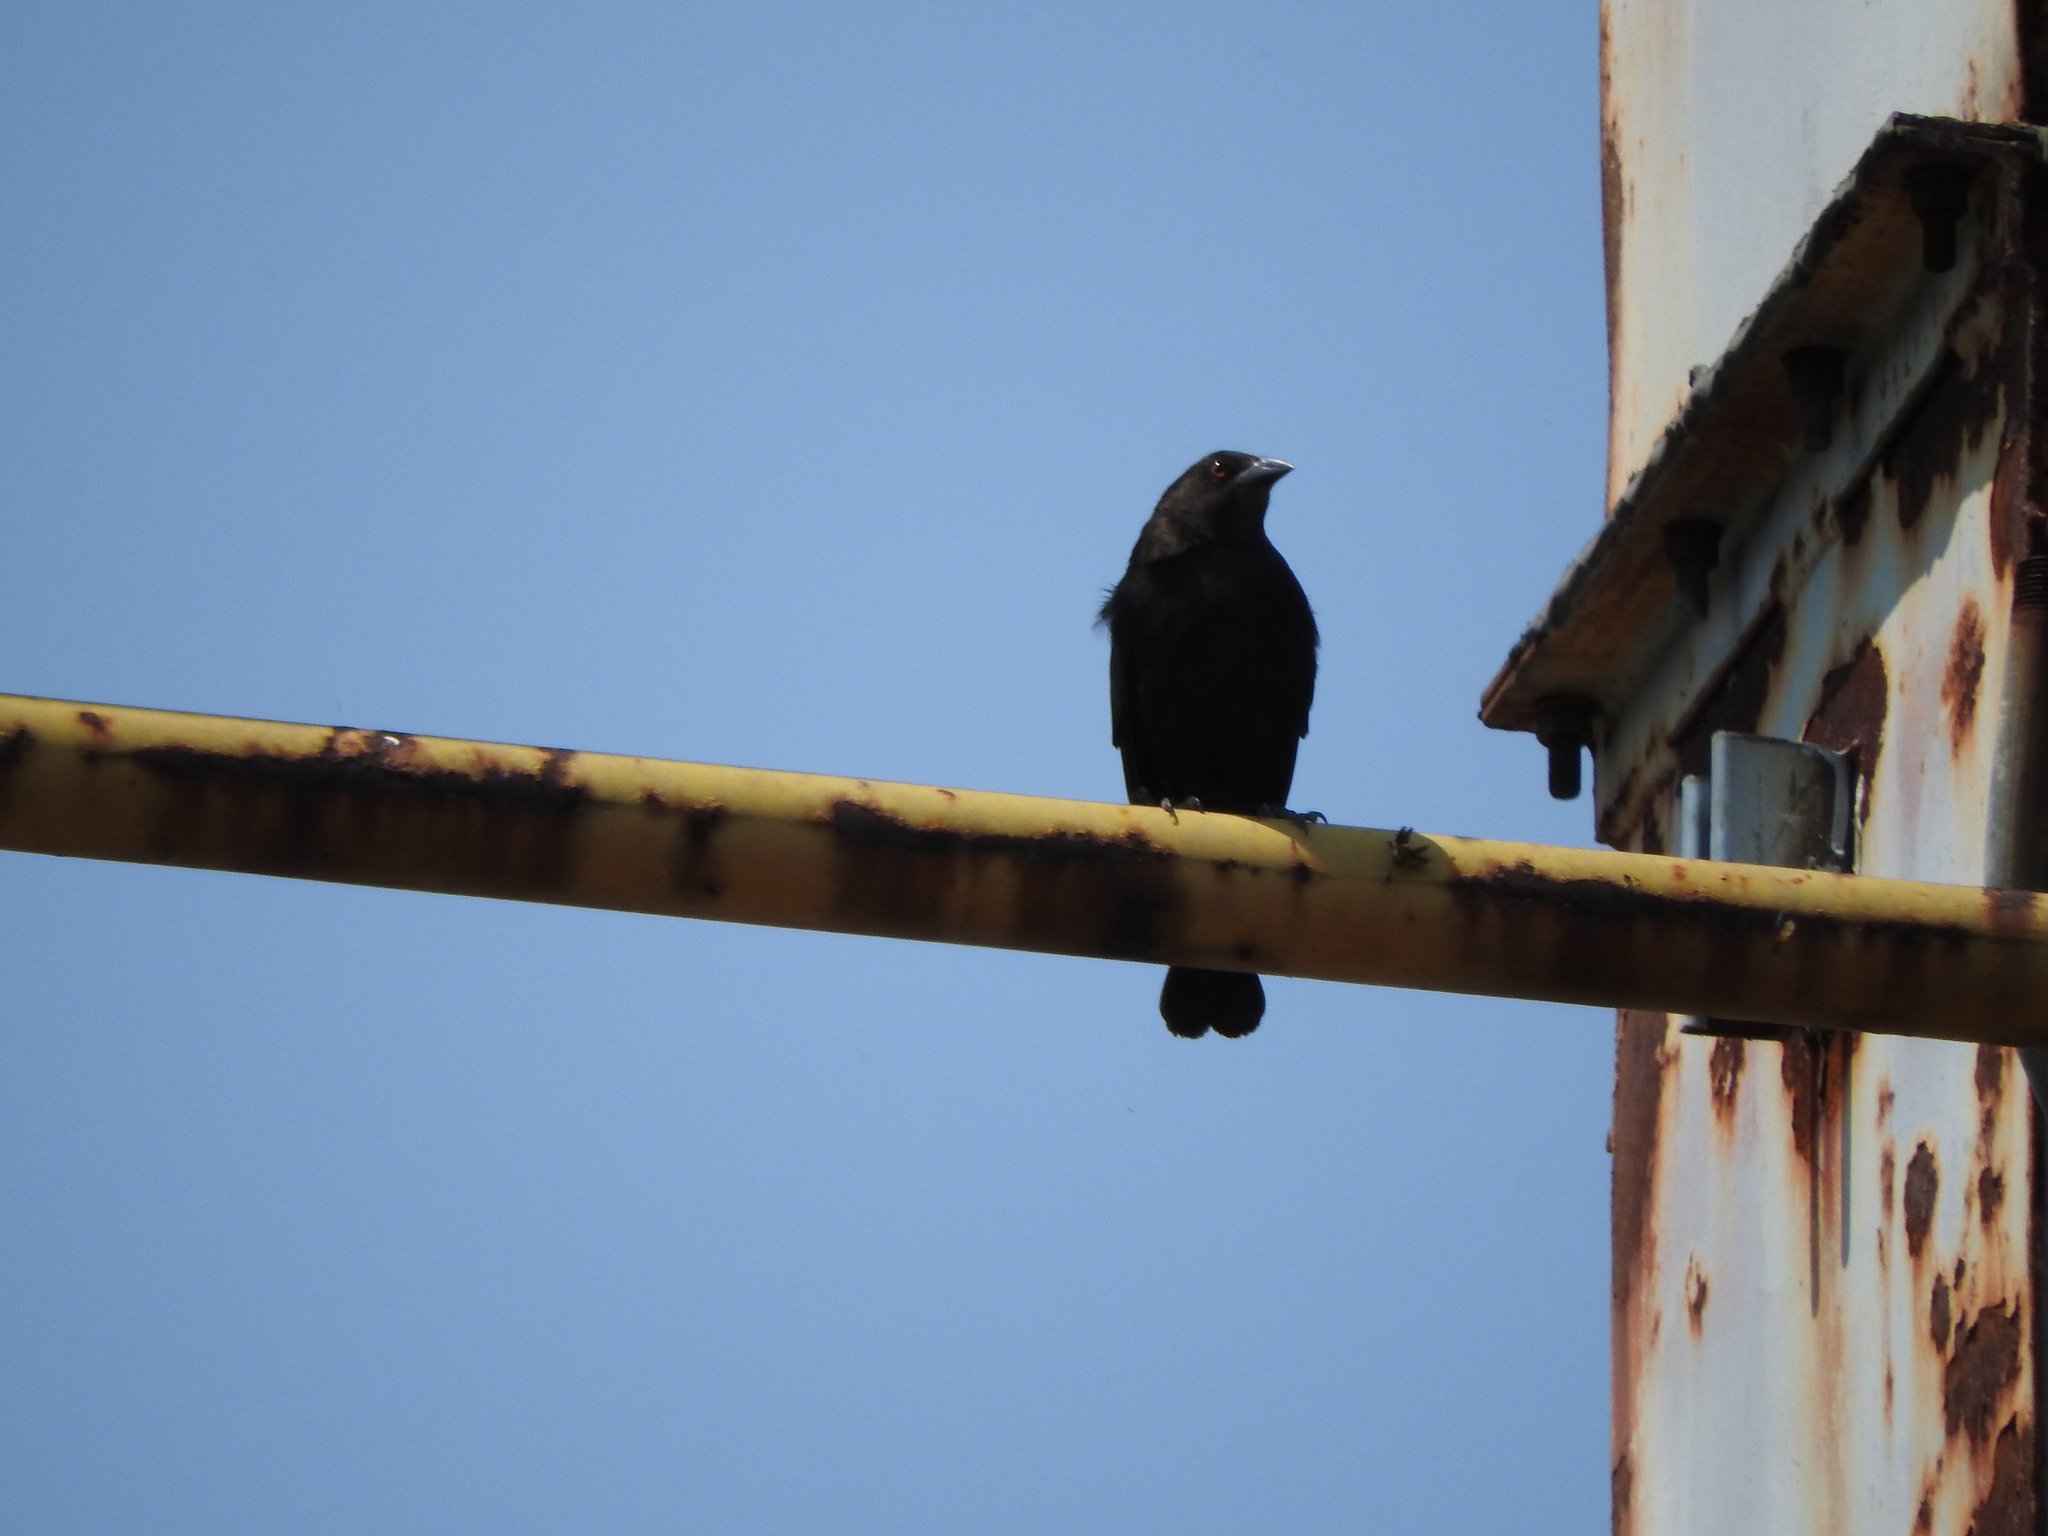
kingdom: Animalia
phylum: Chordata
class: Aves
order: Passeriformes
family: Icteridae
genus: Molothrus
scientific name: Molothrus aeneus
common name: Bronzed cowbird
